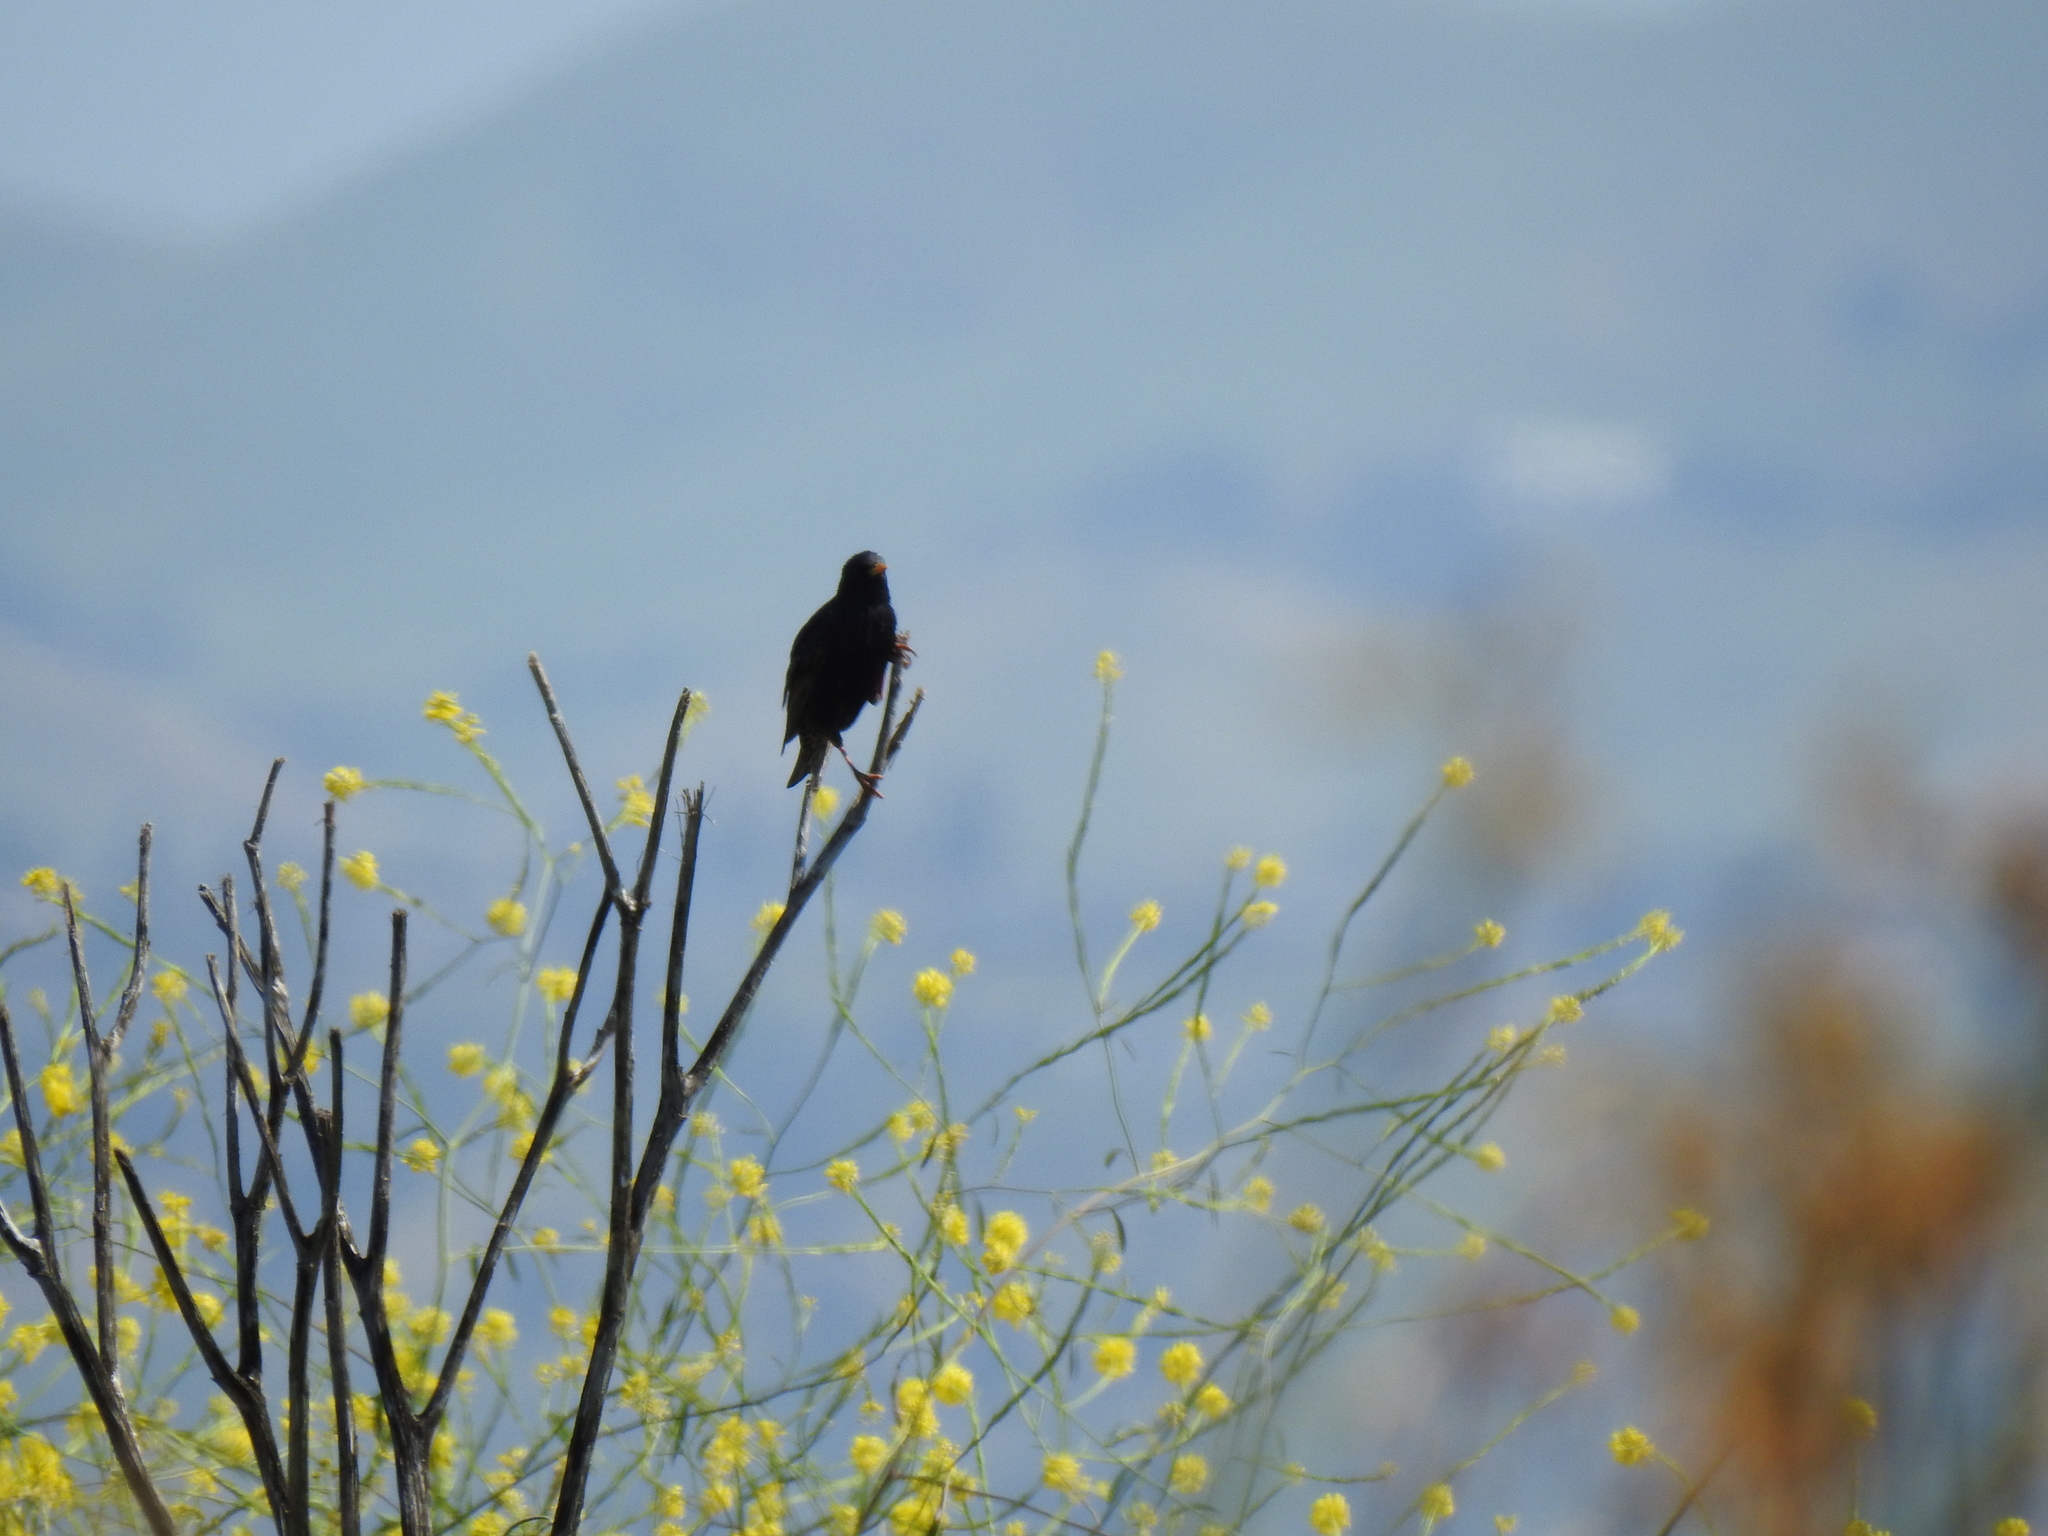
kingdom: Animalia
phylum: Chordata
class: Aves
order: Passeriformes
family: Sturnidae
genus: Sturnus
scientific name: Sturnus vulgaris
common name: Common starling
